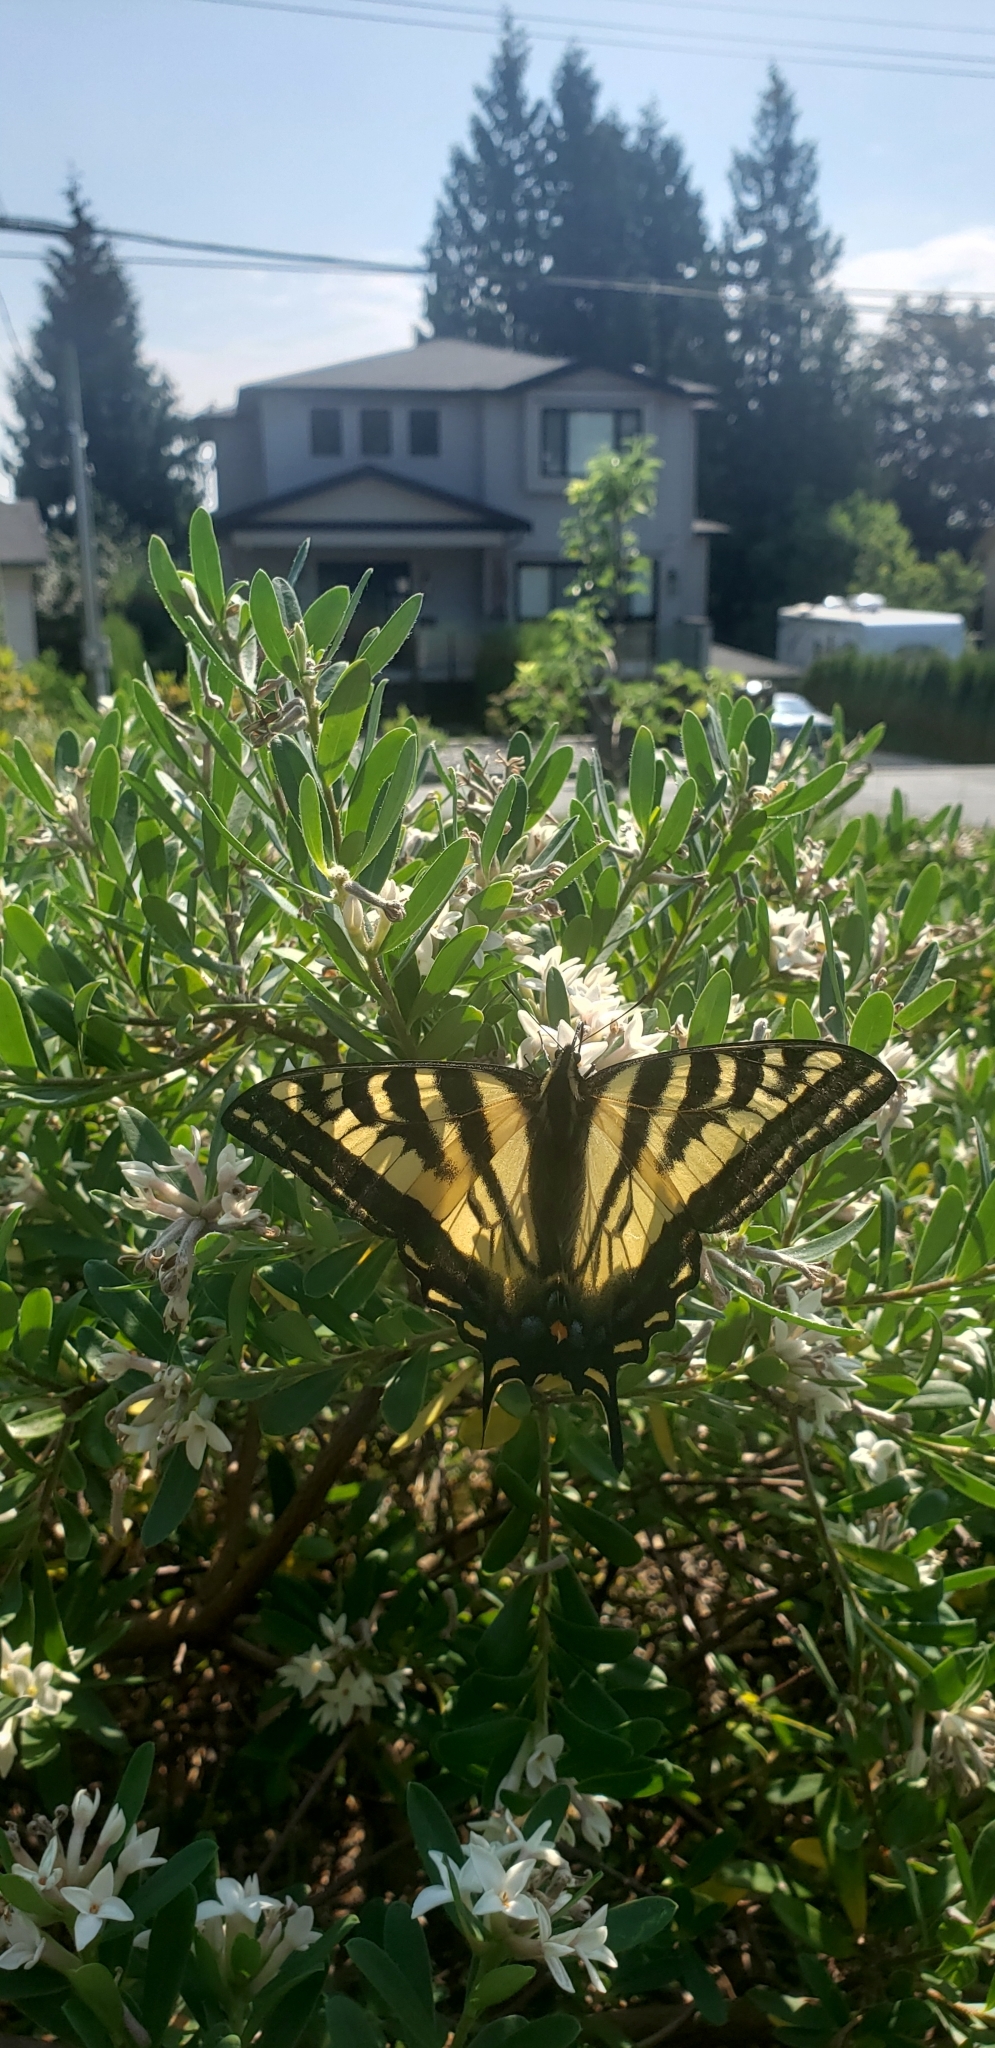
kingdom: Animalia
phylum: Arthropoda
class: Insecta
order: Lepidoptera
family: Papilionidae
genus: Papilio
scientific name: Papilio rutulus
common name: Western tiger swallowtail
